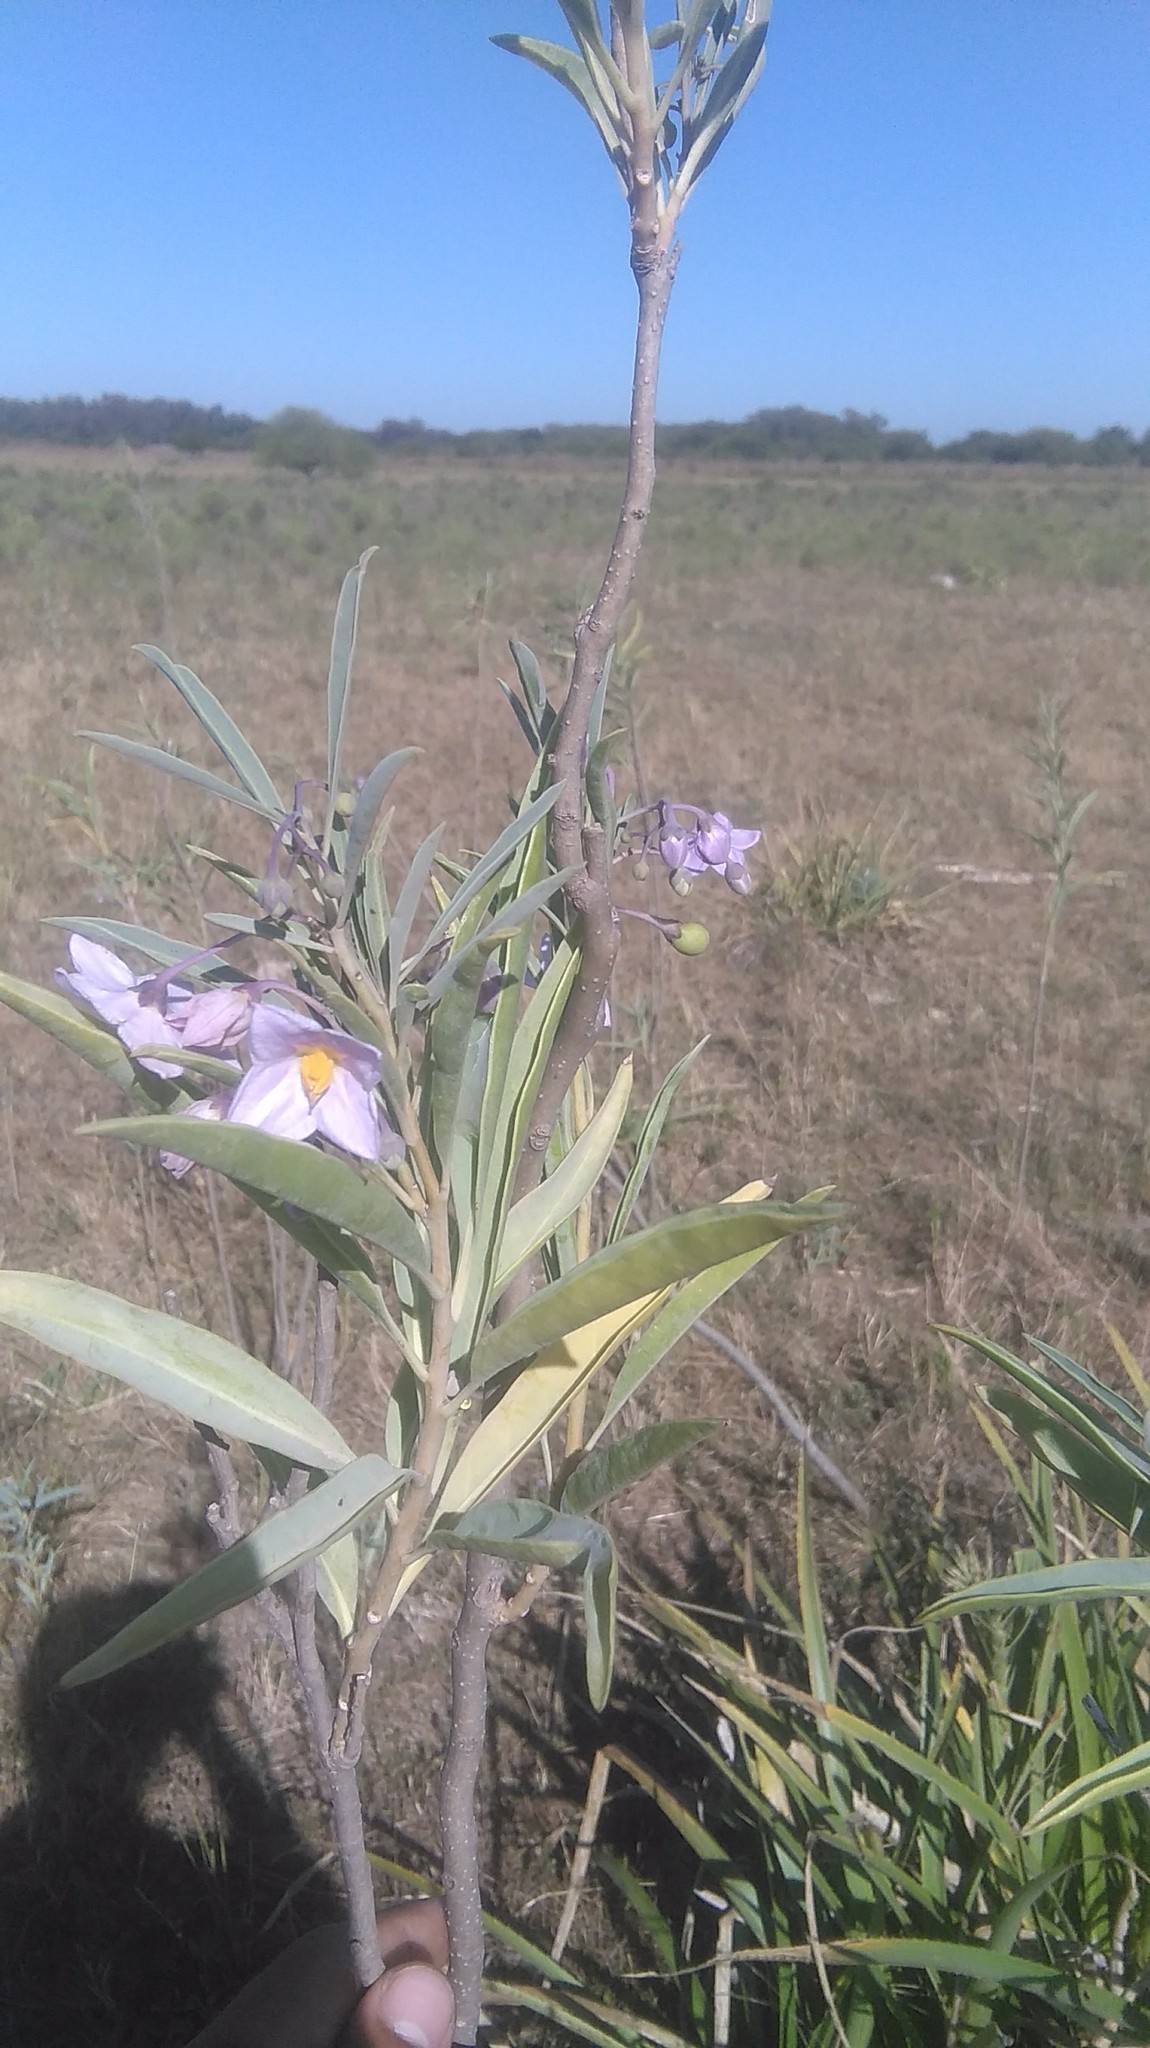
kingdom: Plantae
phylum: Tracheophyta
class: Magnoliopsida
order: Solanales
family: Solanaceae
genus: Solanum
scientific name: Solanum glaucophyllum
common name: Waxyleaf nightshade
